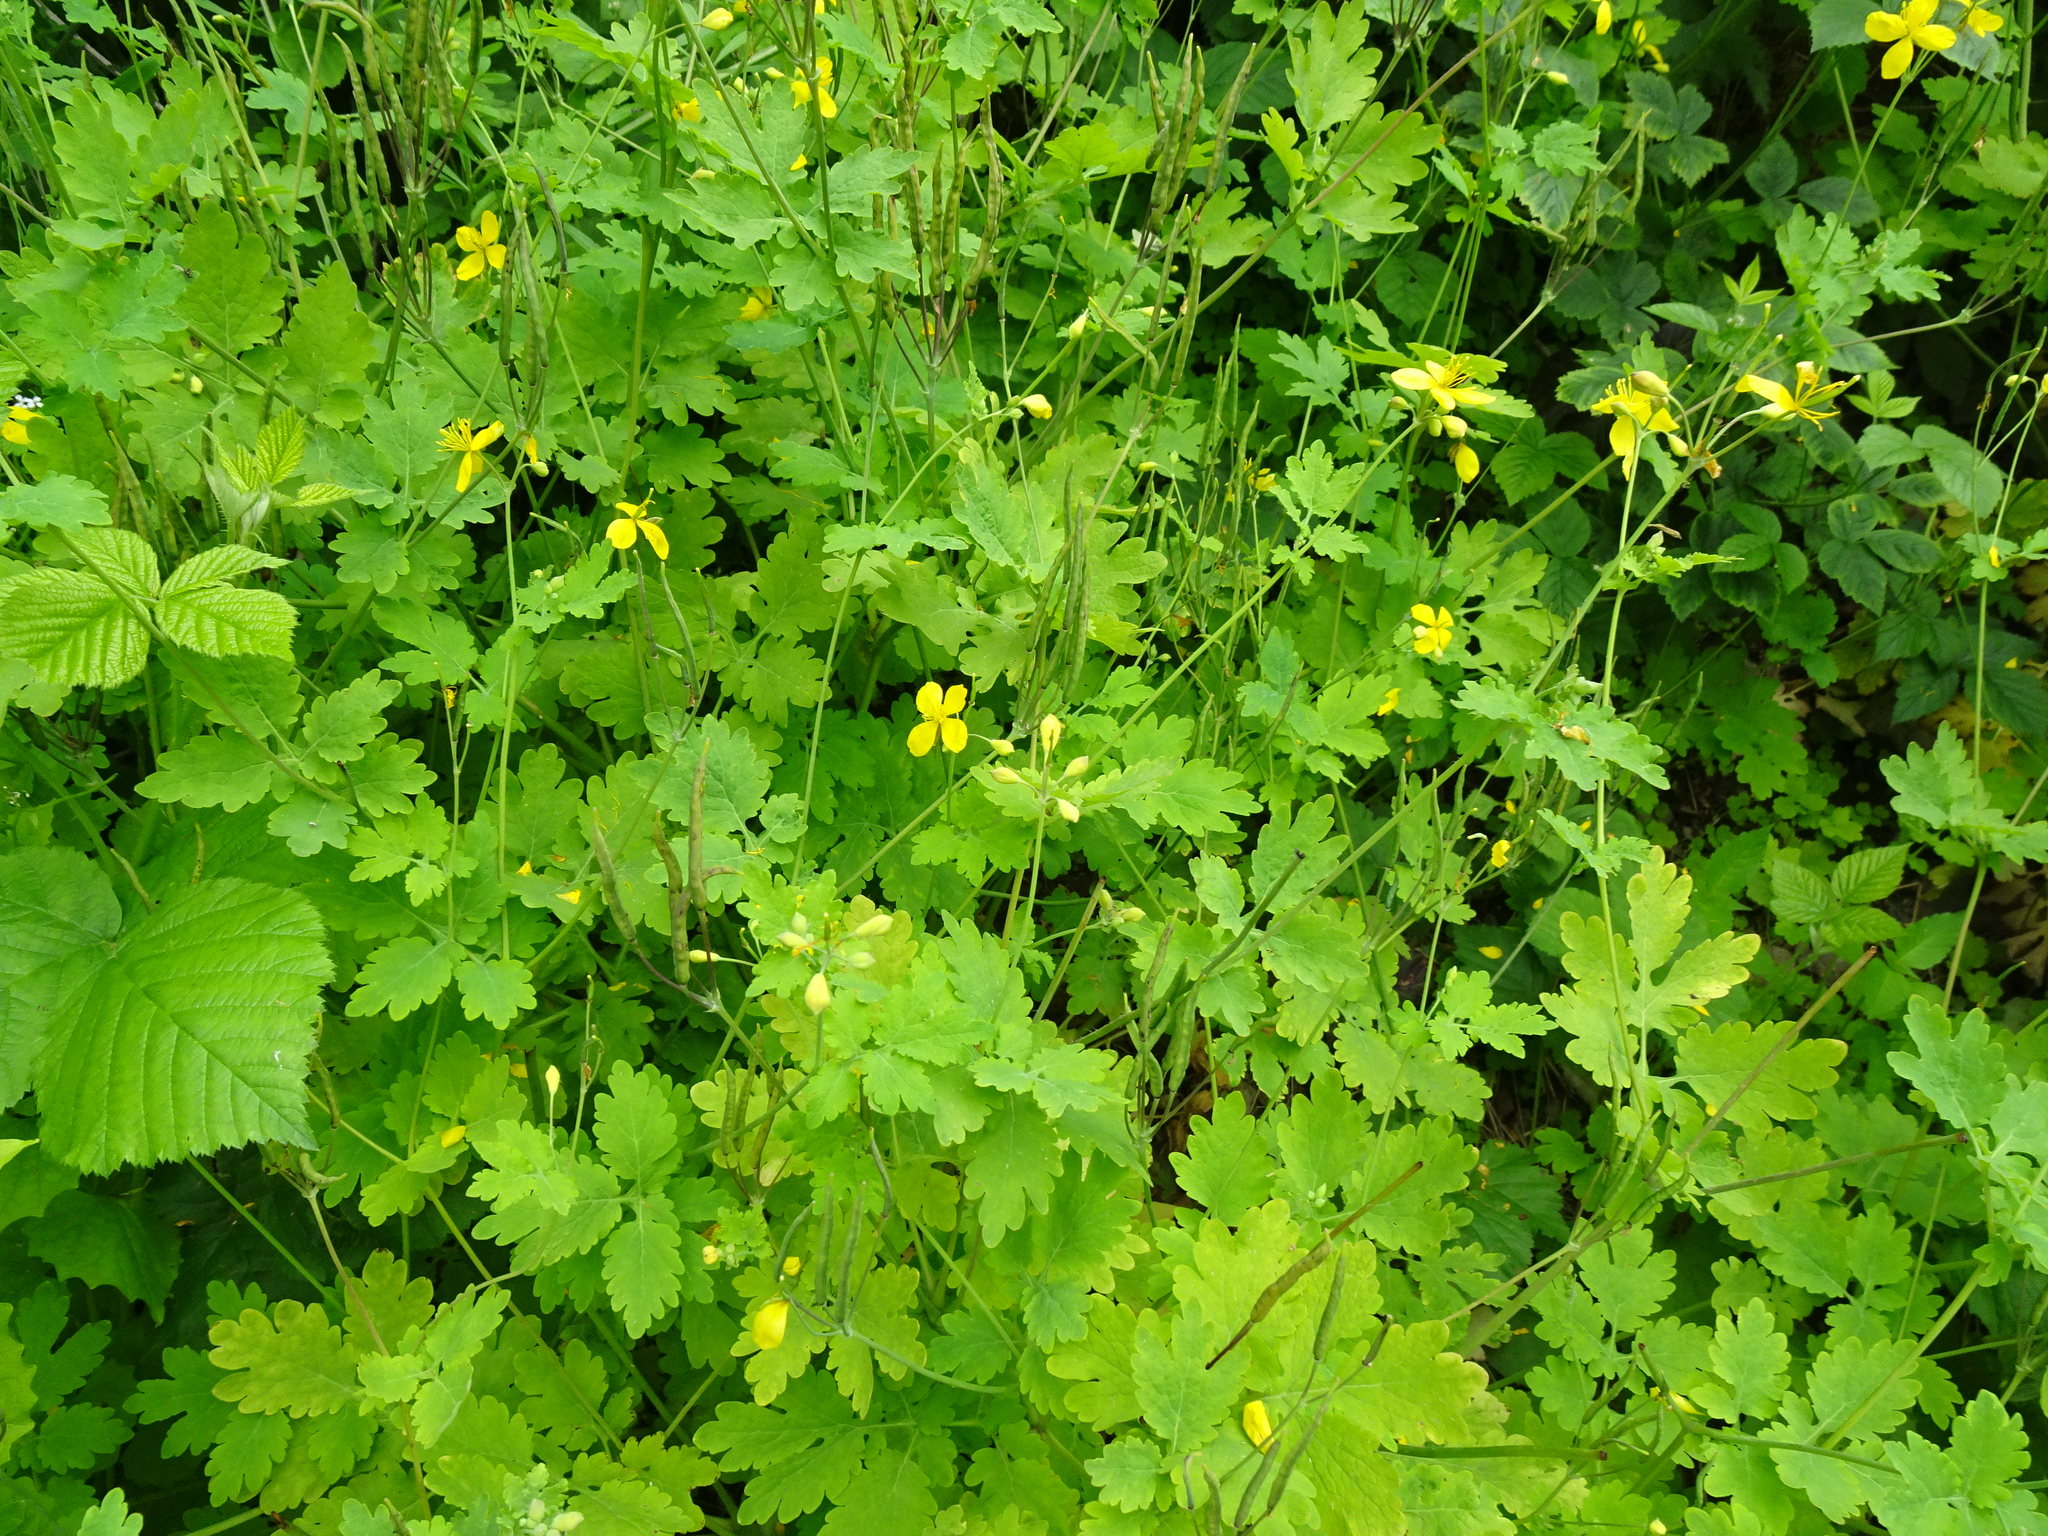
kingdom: Plantae
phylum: Tracheophyta
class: Magnoliopsida
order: Ranunculales
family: Papaveraceae
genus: Chelidonium
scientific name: Chelidonium majus
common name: Greater celandine
